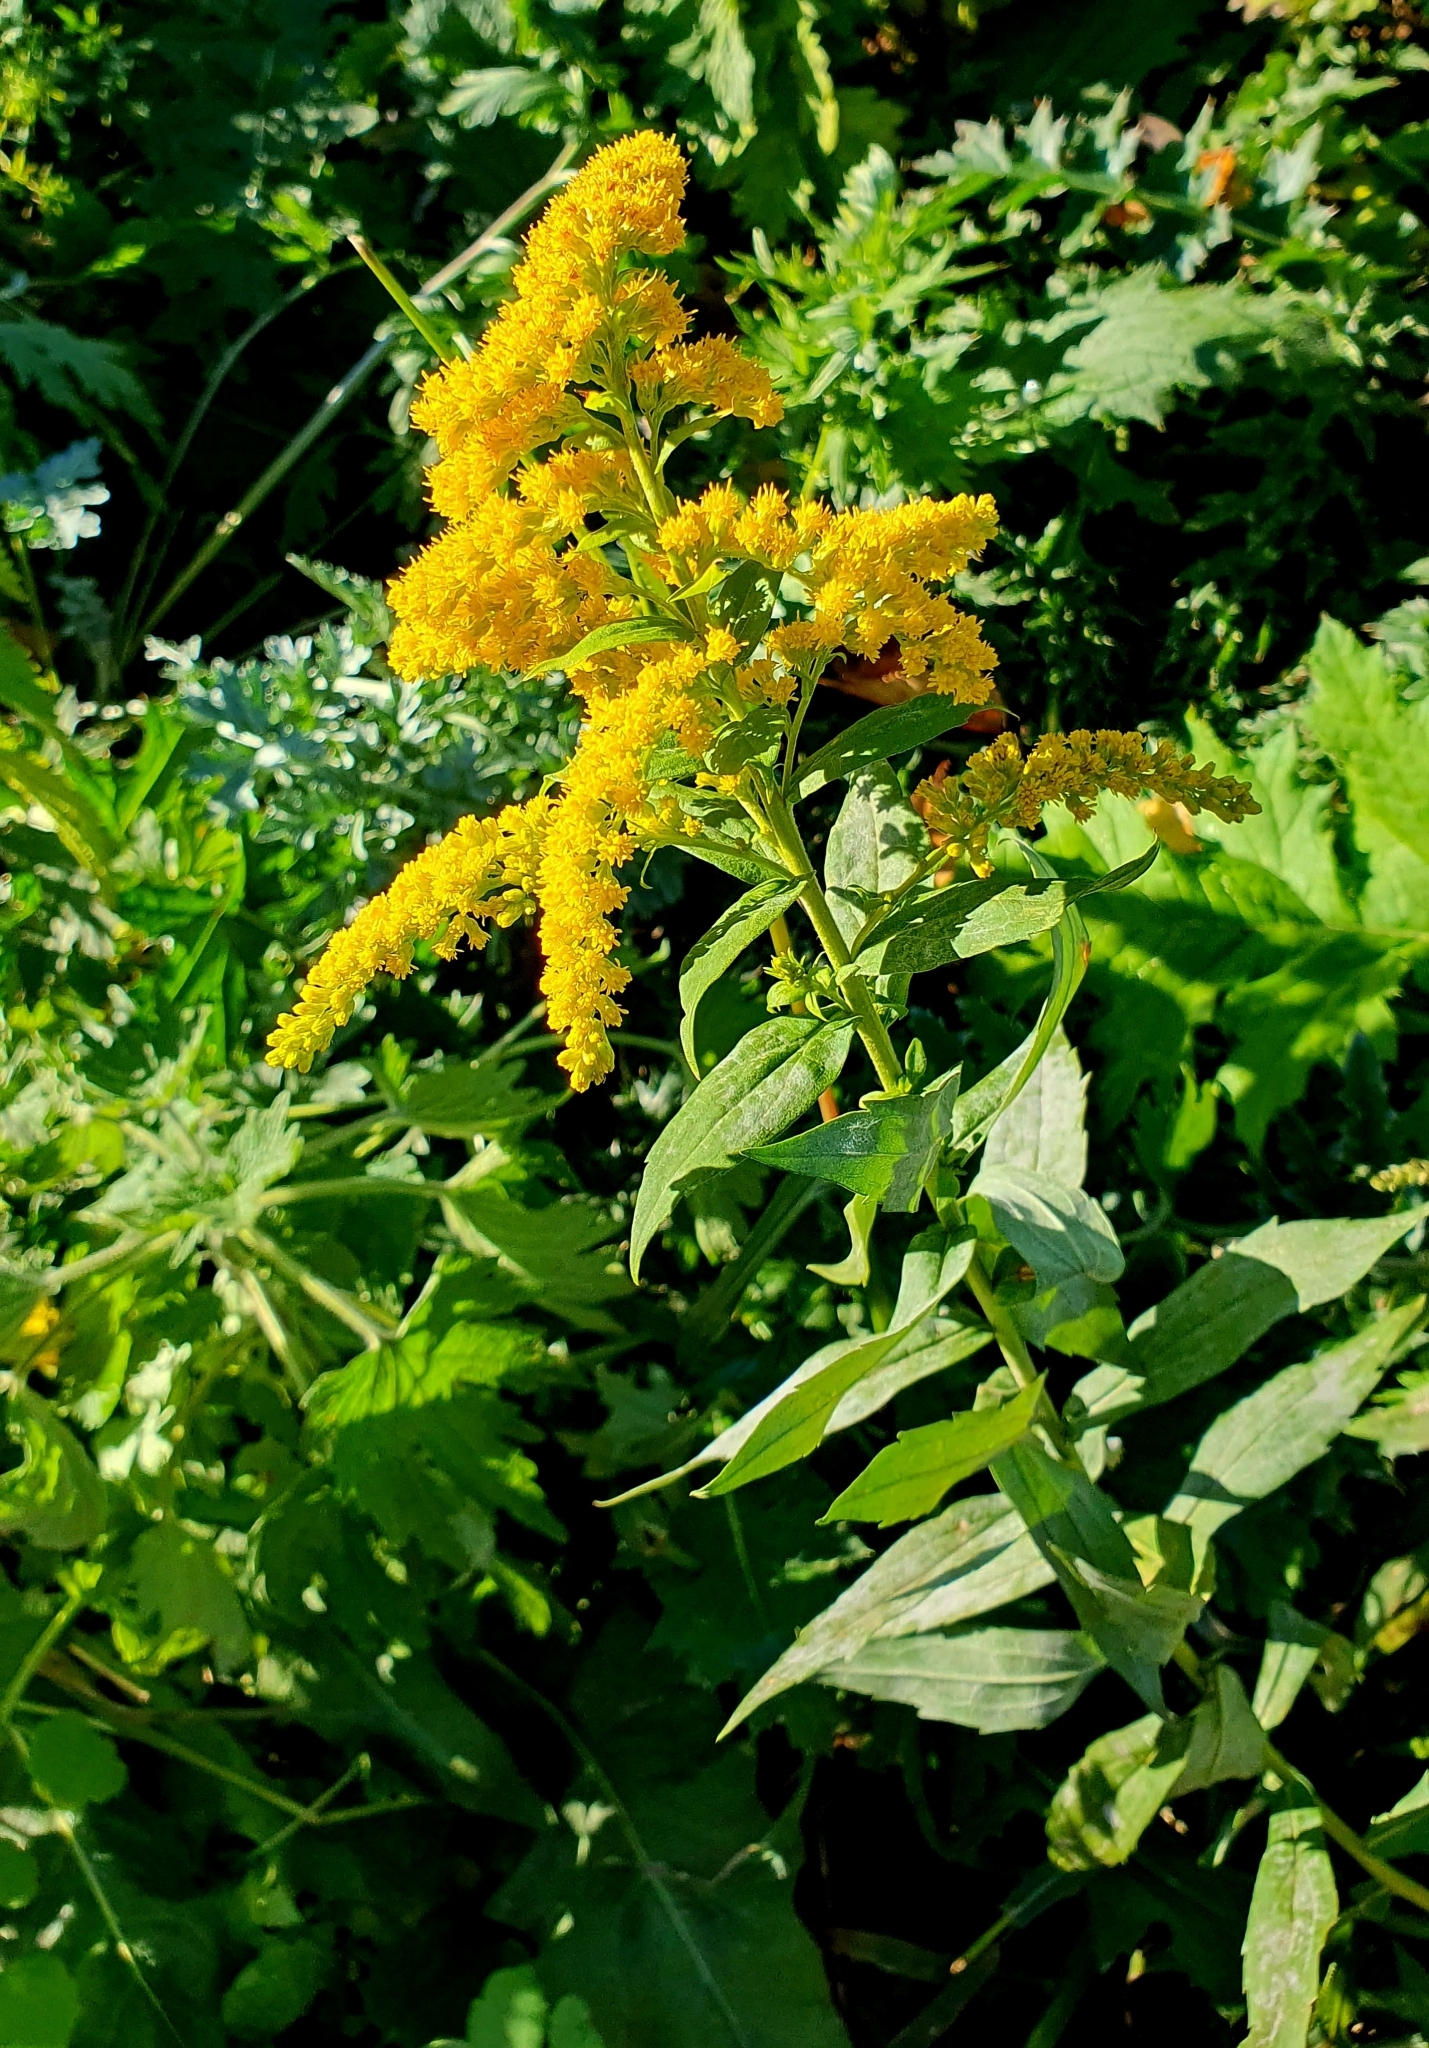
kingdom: Plantae
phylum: Tracheophyta
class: Magnoliopsida
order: Asterales
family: Asteraceae
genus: Solidago
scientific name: Solidago canadensis
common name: Canada goldenrod
